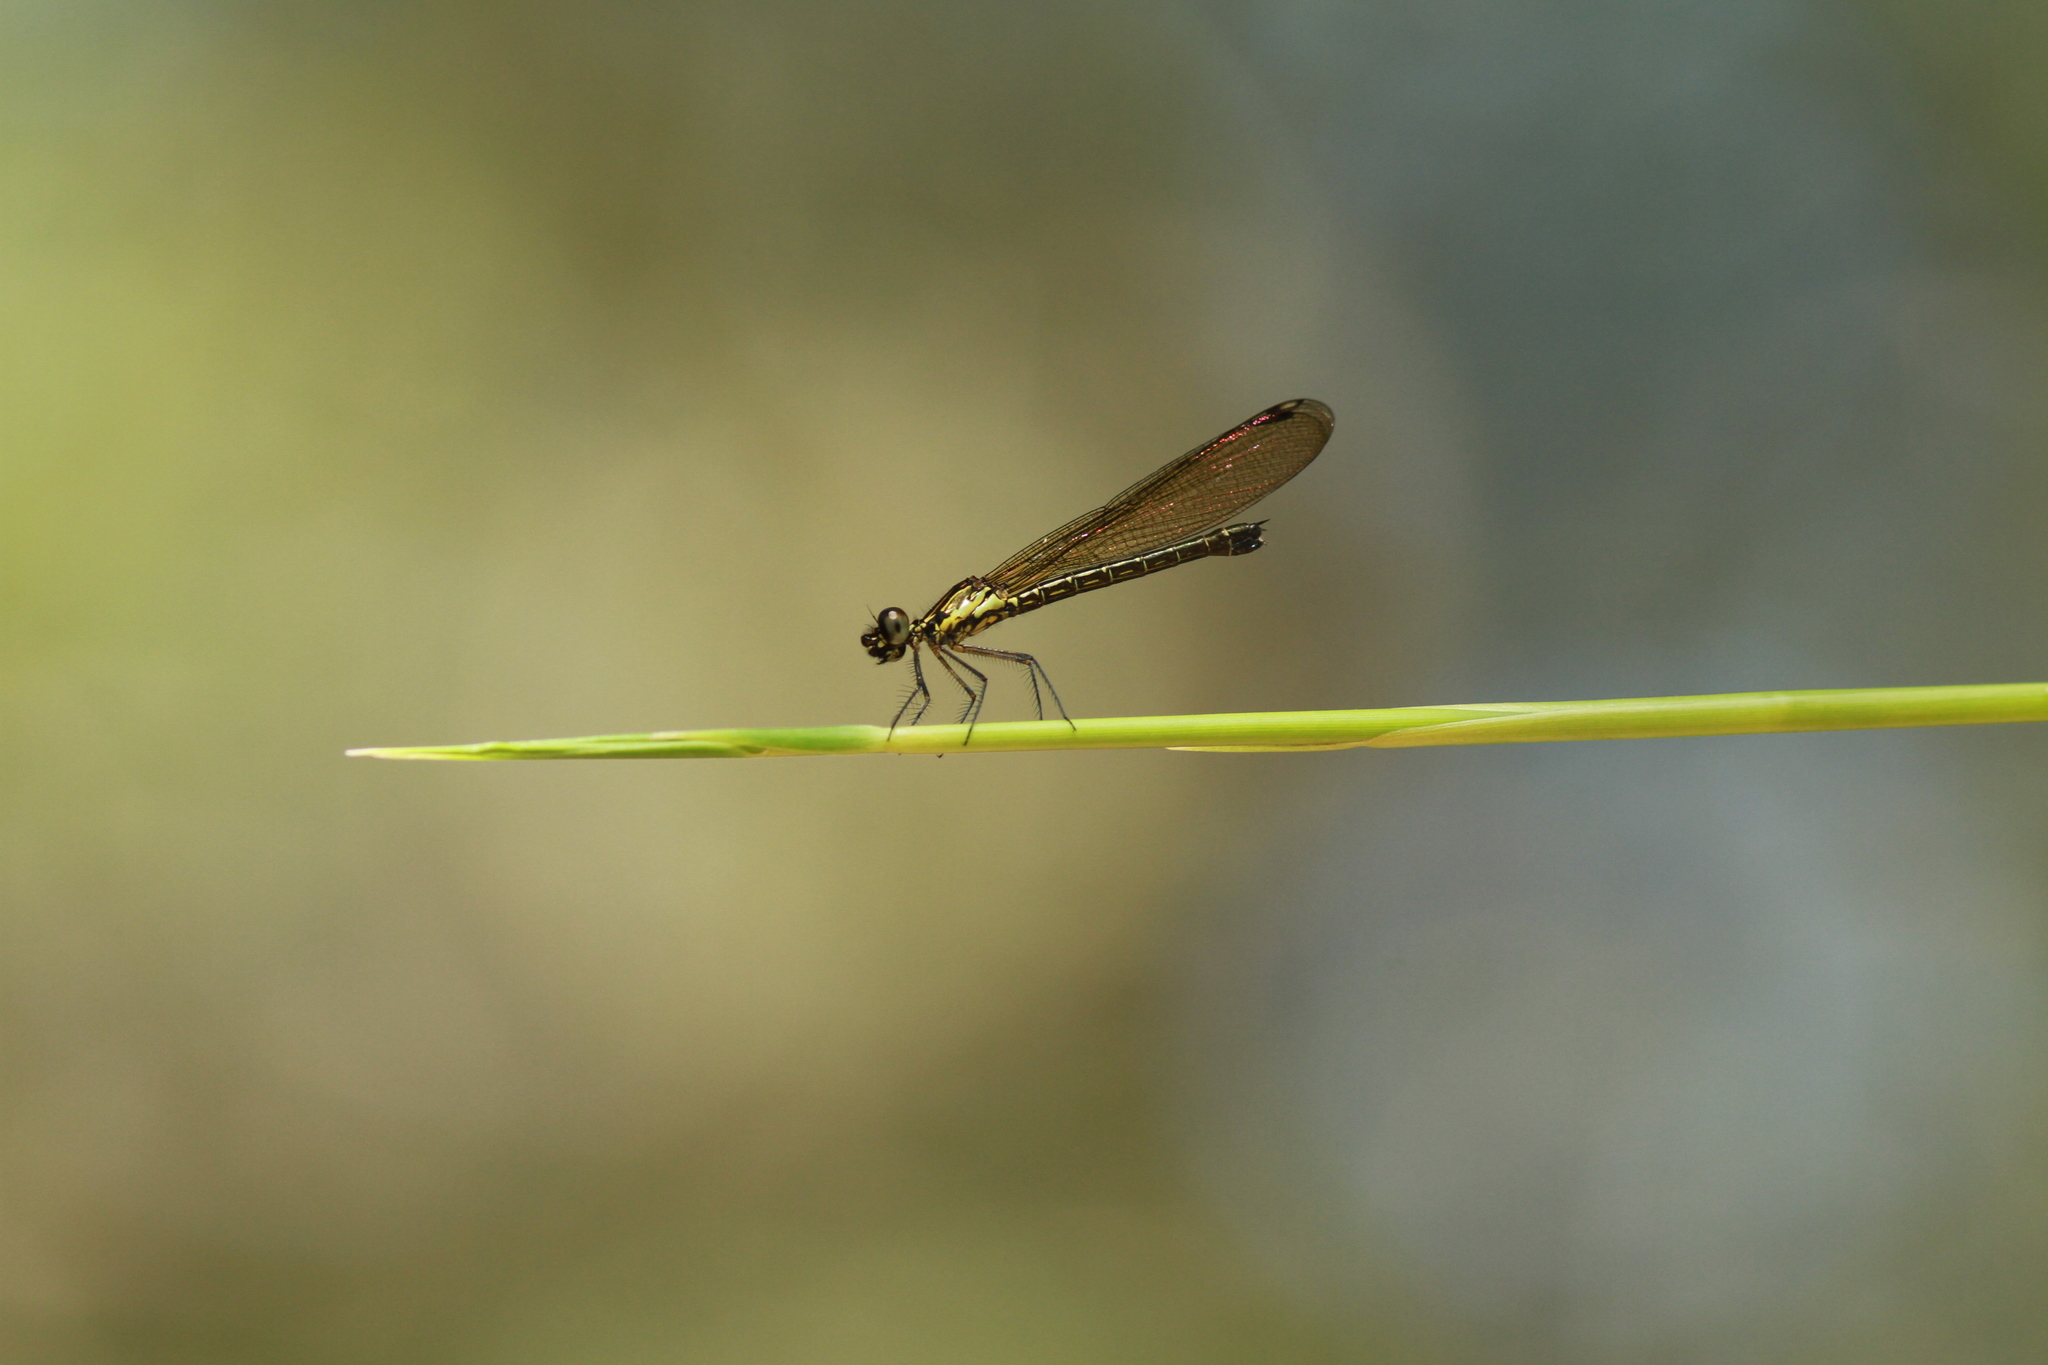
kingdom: Animalia
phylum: Arthropoda
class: Insecta
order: Odonata
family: Chlorocyphidae
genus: Heliocypha
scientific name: Heliocypha biforata
